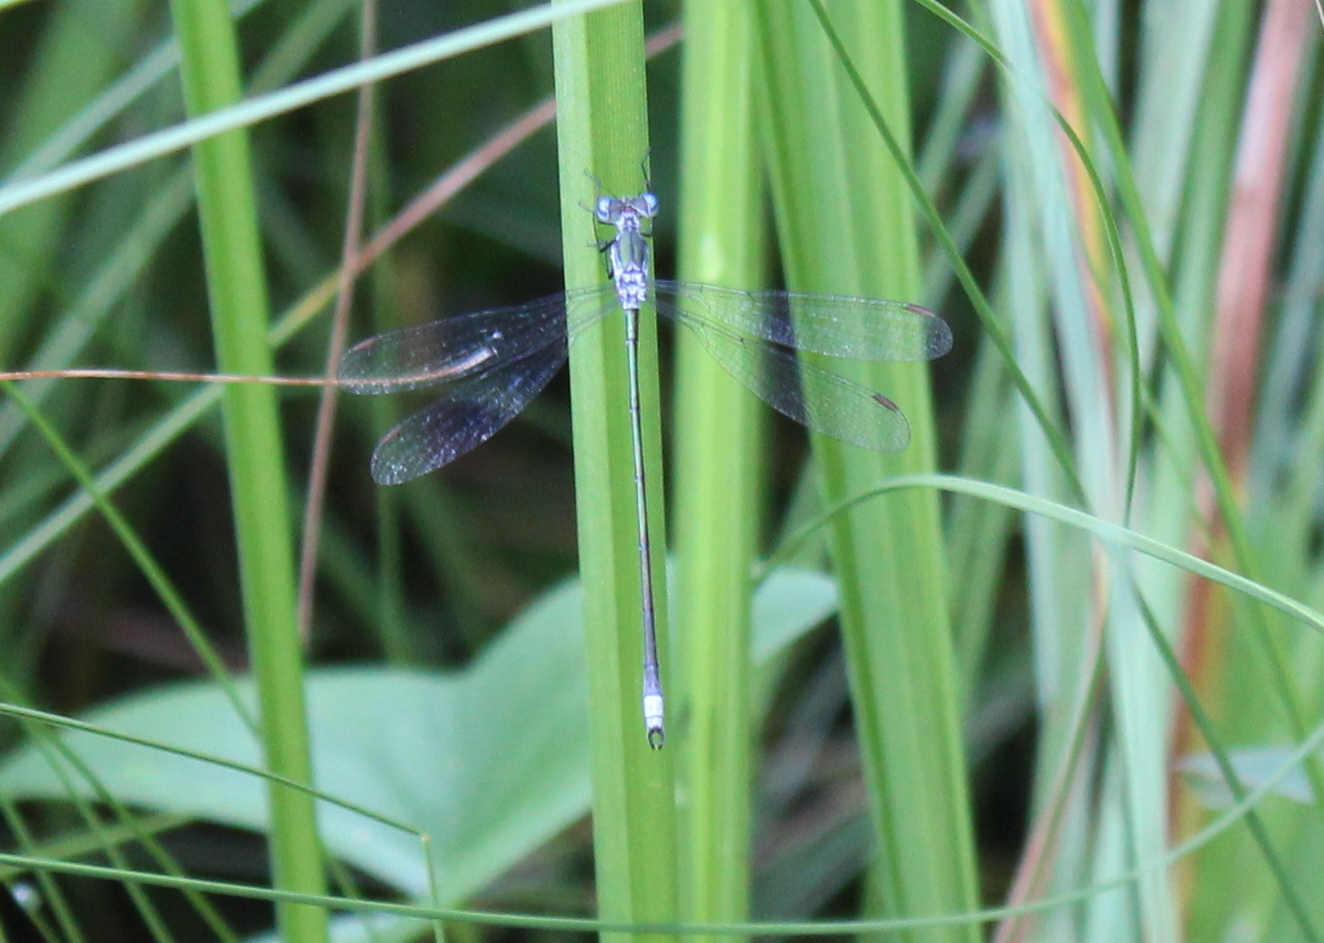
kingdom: Animalia
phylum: Arthropoda
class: Insecta
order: Odonata
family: Lestidae
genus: Lestes
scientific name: Lestes vigilax
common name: Swamp spreadwing
